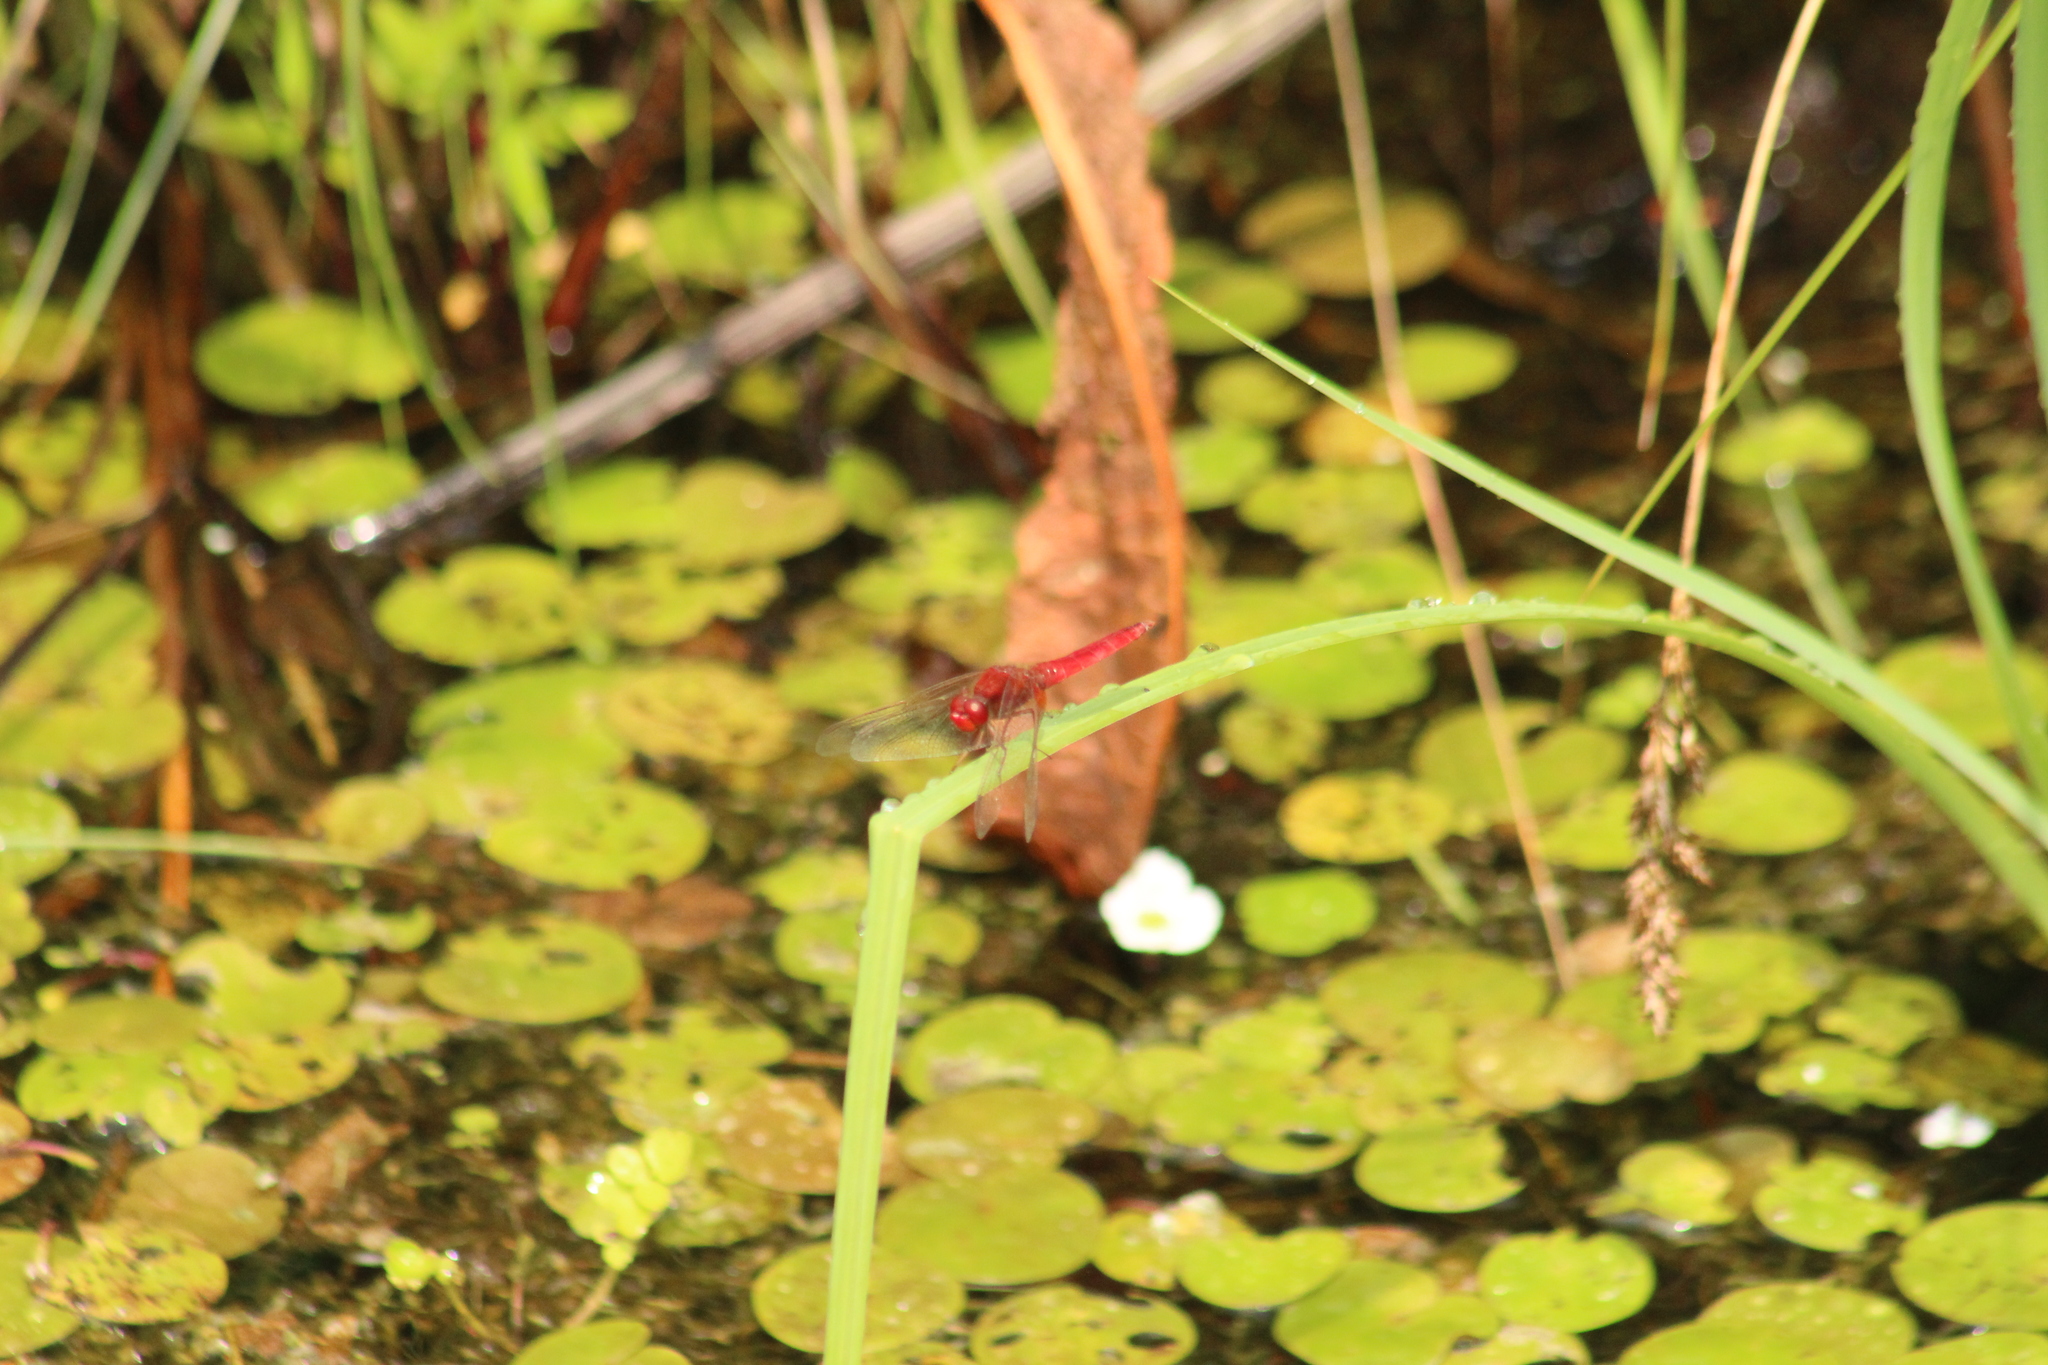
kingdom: Animalia
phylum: Arthropoda
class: Insecta
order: Odonata
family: Libellulidae
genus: Crocothemis
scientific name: Crocothemis erythraea
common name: Scarlet dragonfly
